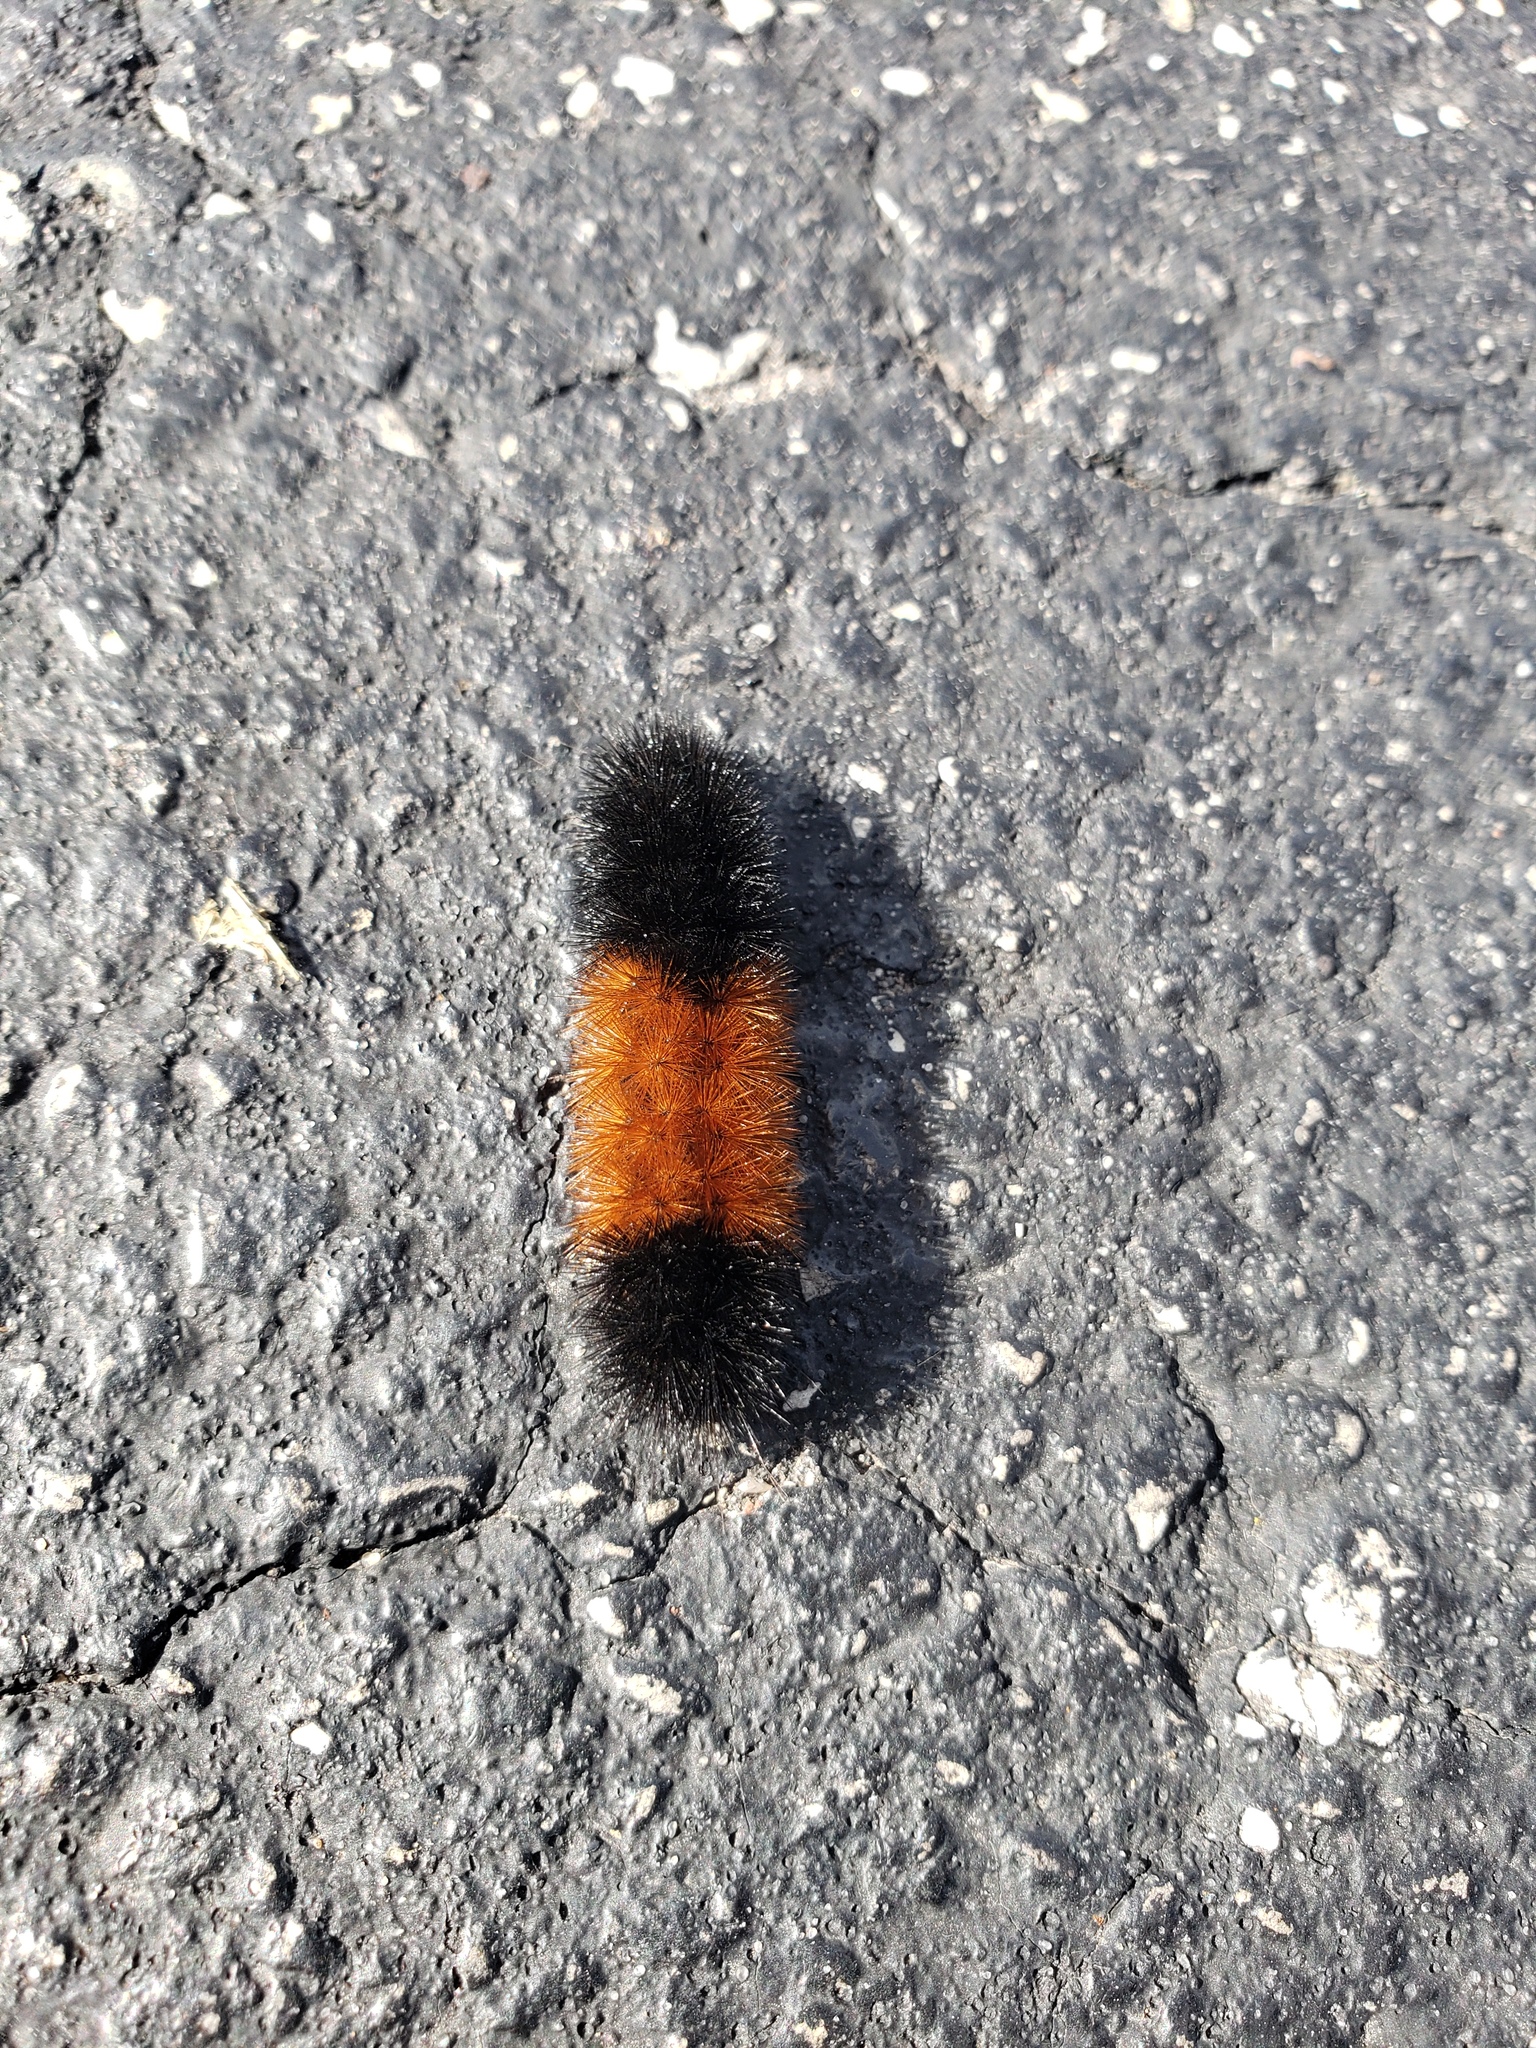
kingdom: Animalia
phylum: Arthropoda
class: Insecta
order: Lepidoptera
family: Erebidae
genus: Pyrrharctia
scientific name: Pyrrharctia isabella
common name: Isabella tiger moth
